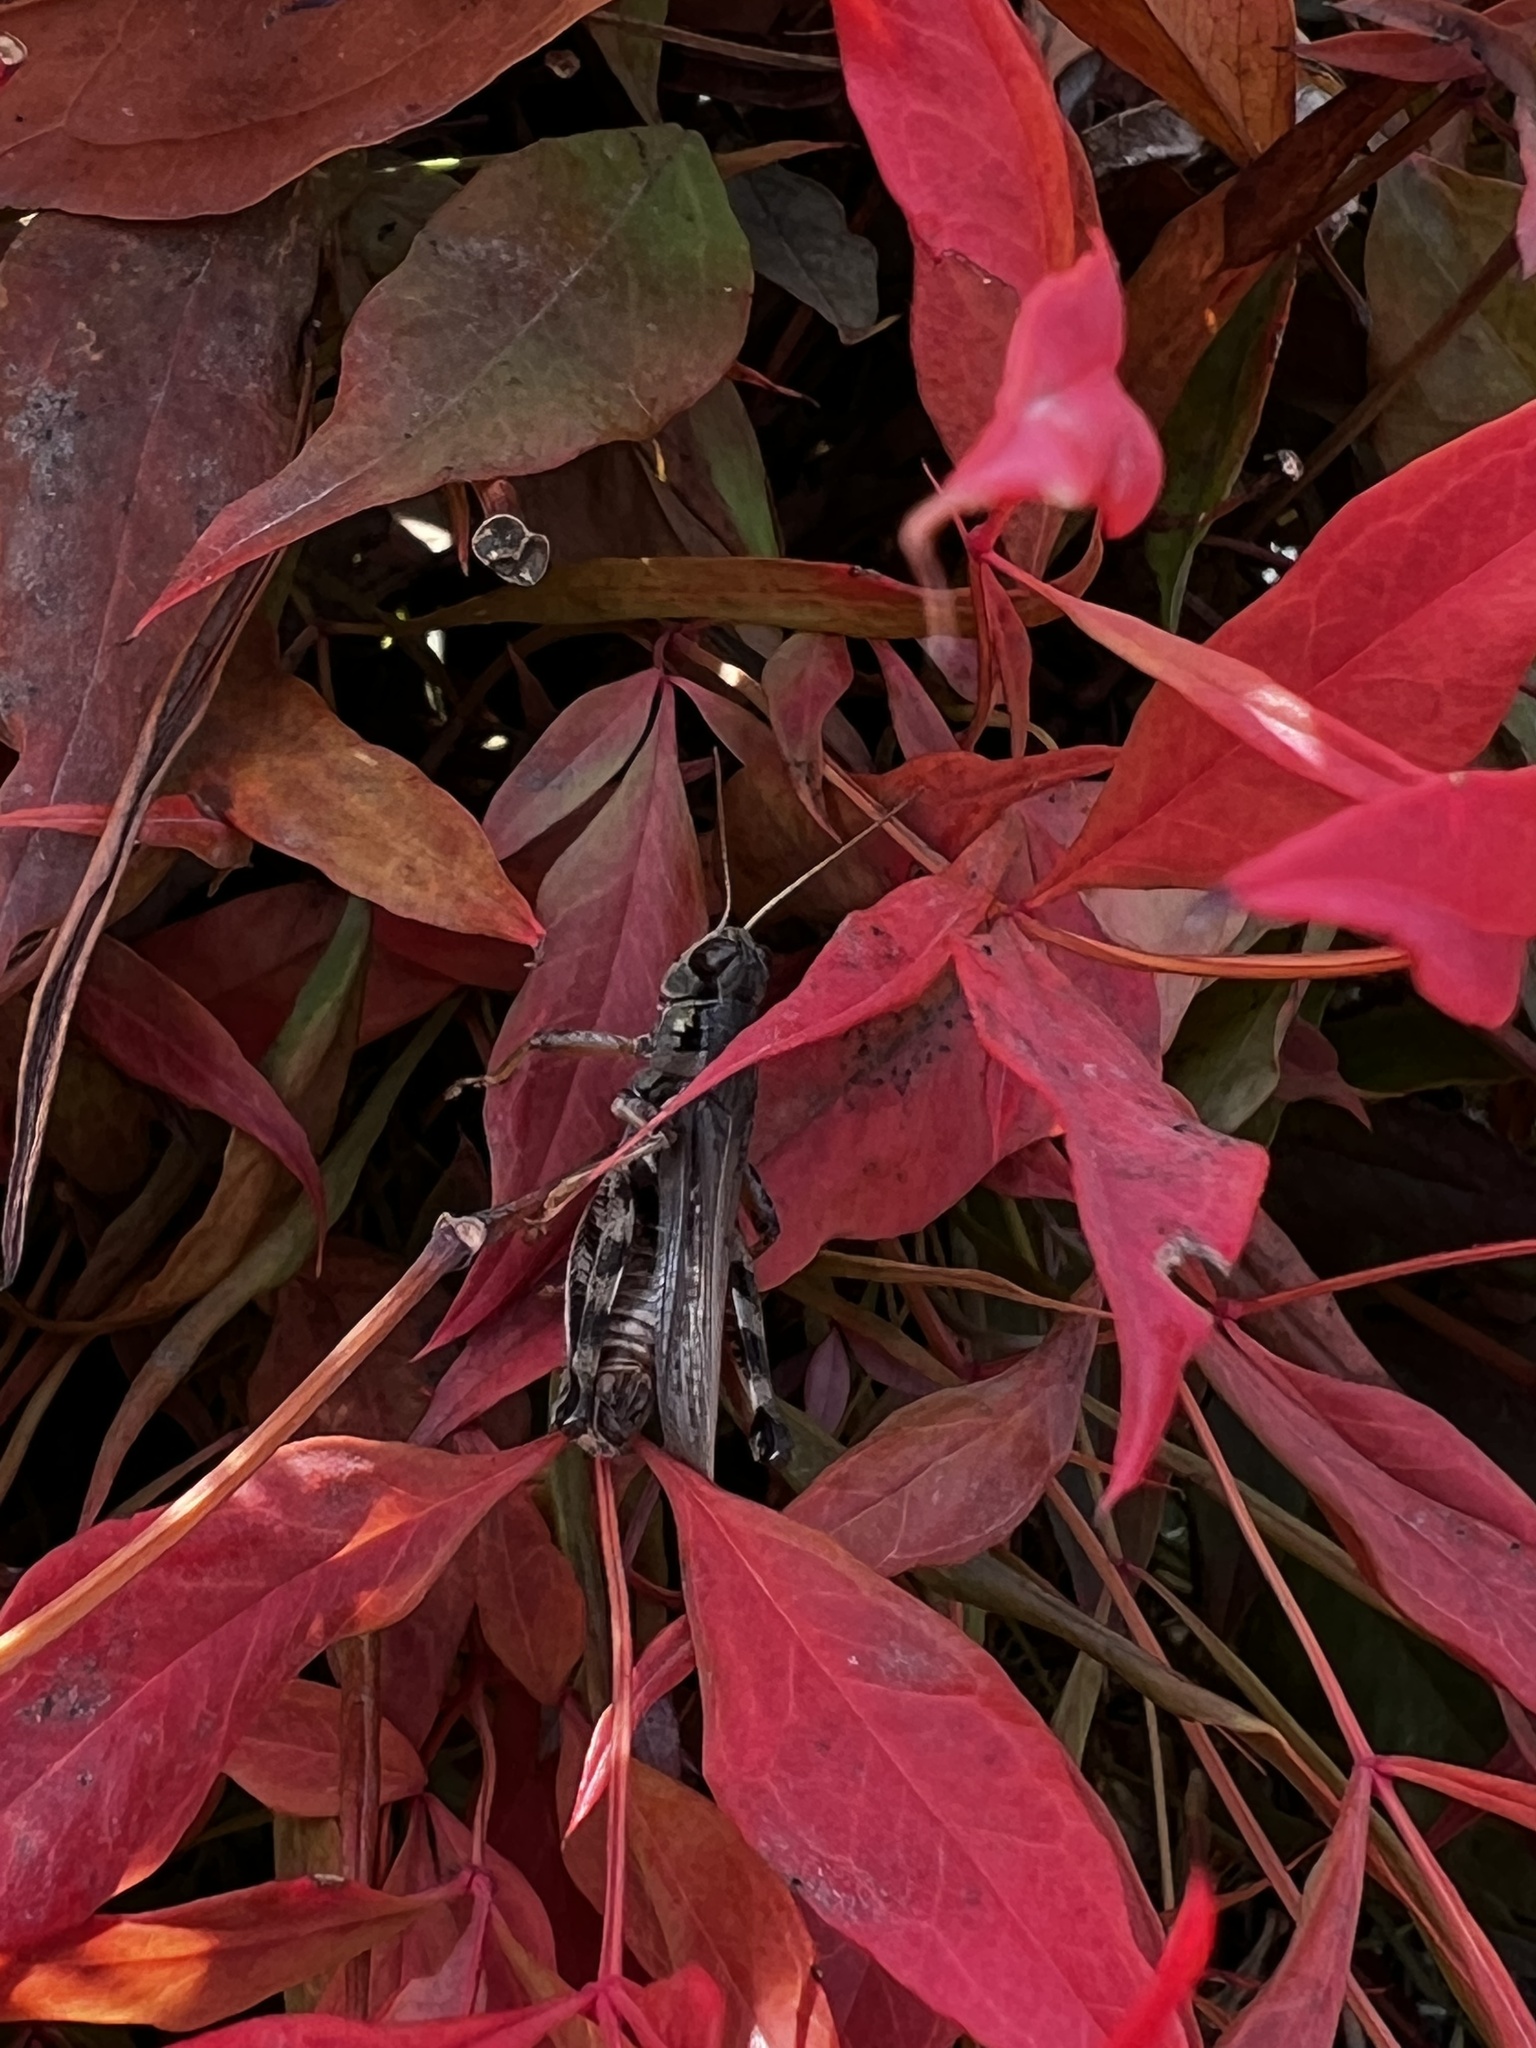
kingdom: Animalia
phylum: Arthropoda
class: Insecta
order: Orthoptera
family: Acrididae
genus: Melanoplus
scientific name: Melanoplus sanguinipes
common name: Migratory grasshopper
